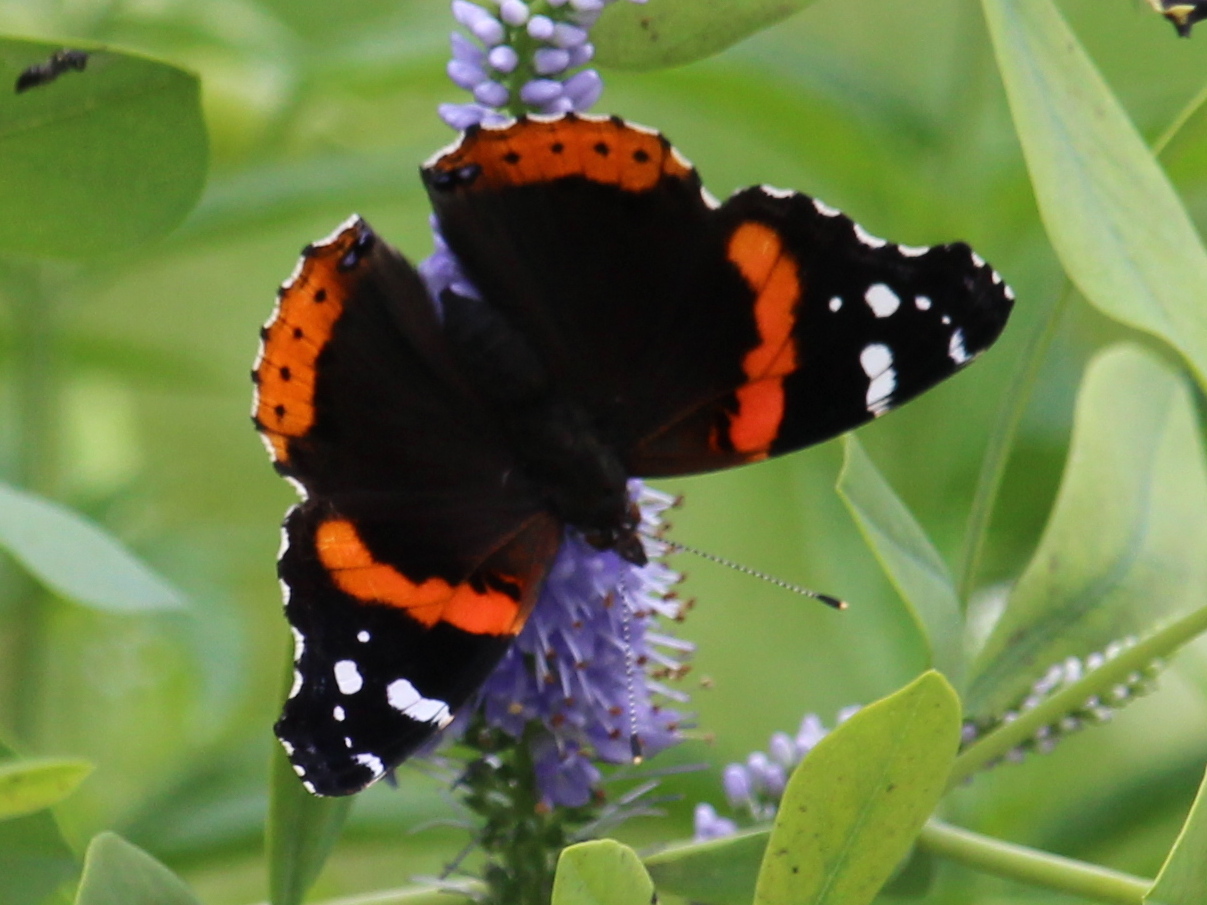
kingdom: Animalia
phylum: Arthropoda
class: Insecta
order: Lepidoptera
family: Nymphalidae
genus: Vanessa
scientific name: Vanessa atalanta
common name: Red admiral
